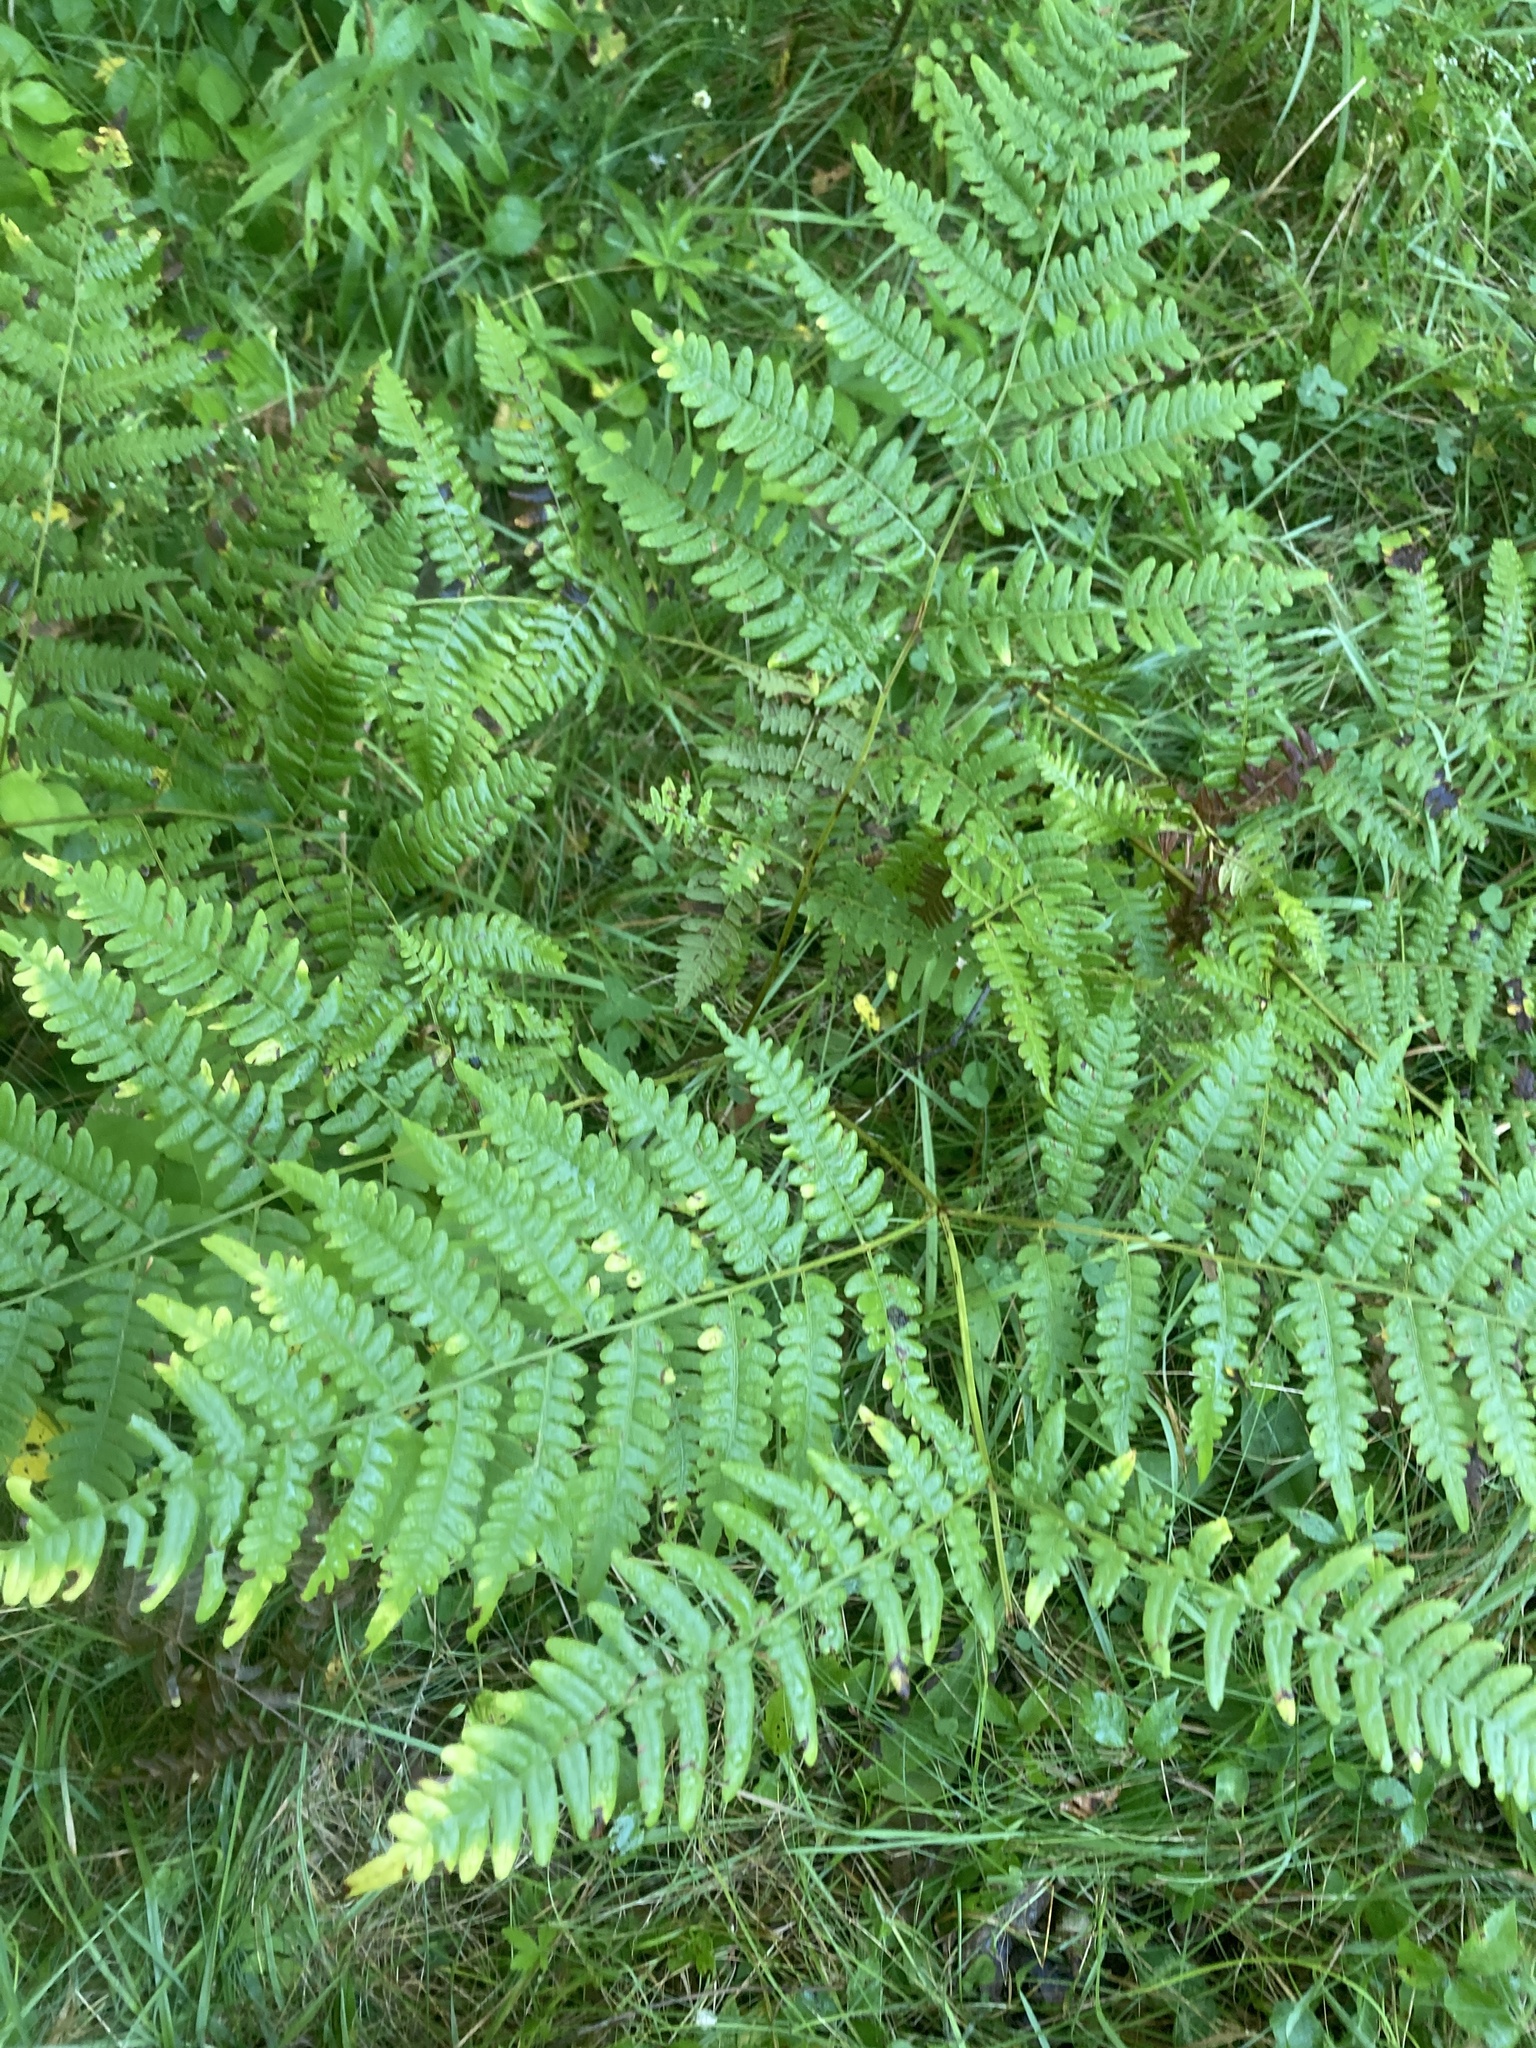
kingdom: Plantae
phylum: Tracheophyta
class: Polypodiopsida
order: Polypodiales
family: Dennstaedtiaceae
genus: Pteridium
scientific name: Pteridium aquilinum
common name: Bracken
